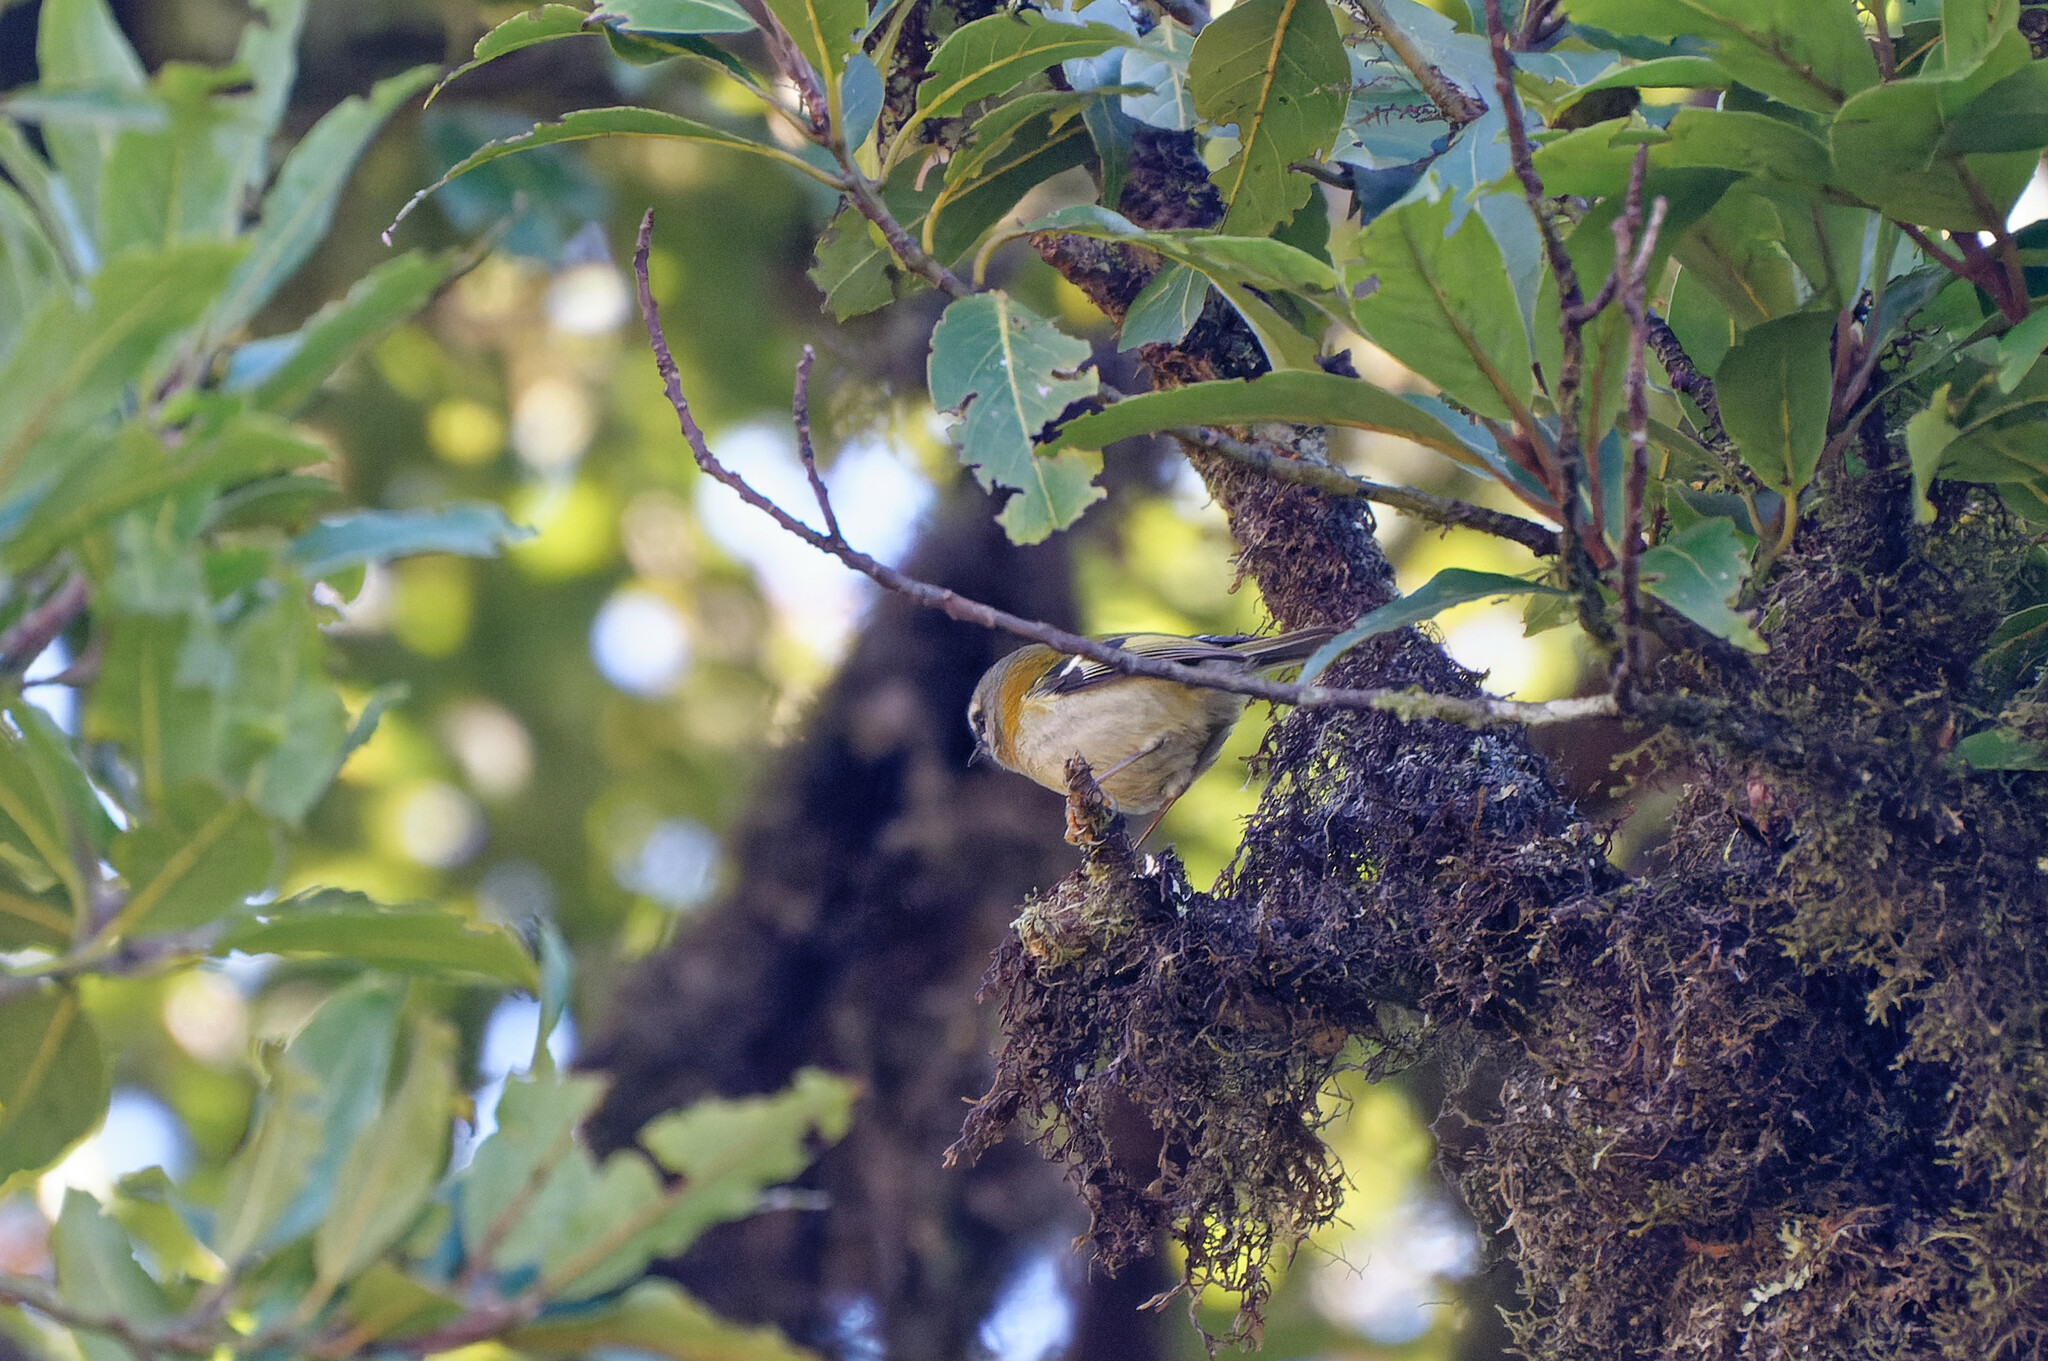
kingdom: Animalia
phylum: Chordata
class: Aves
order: Passeriformes
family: Regulidae
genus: Regulus
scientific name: Regulus madeirensis
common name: Madeira firecrest
